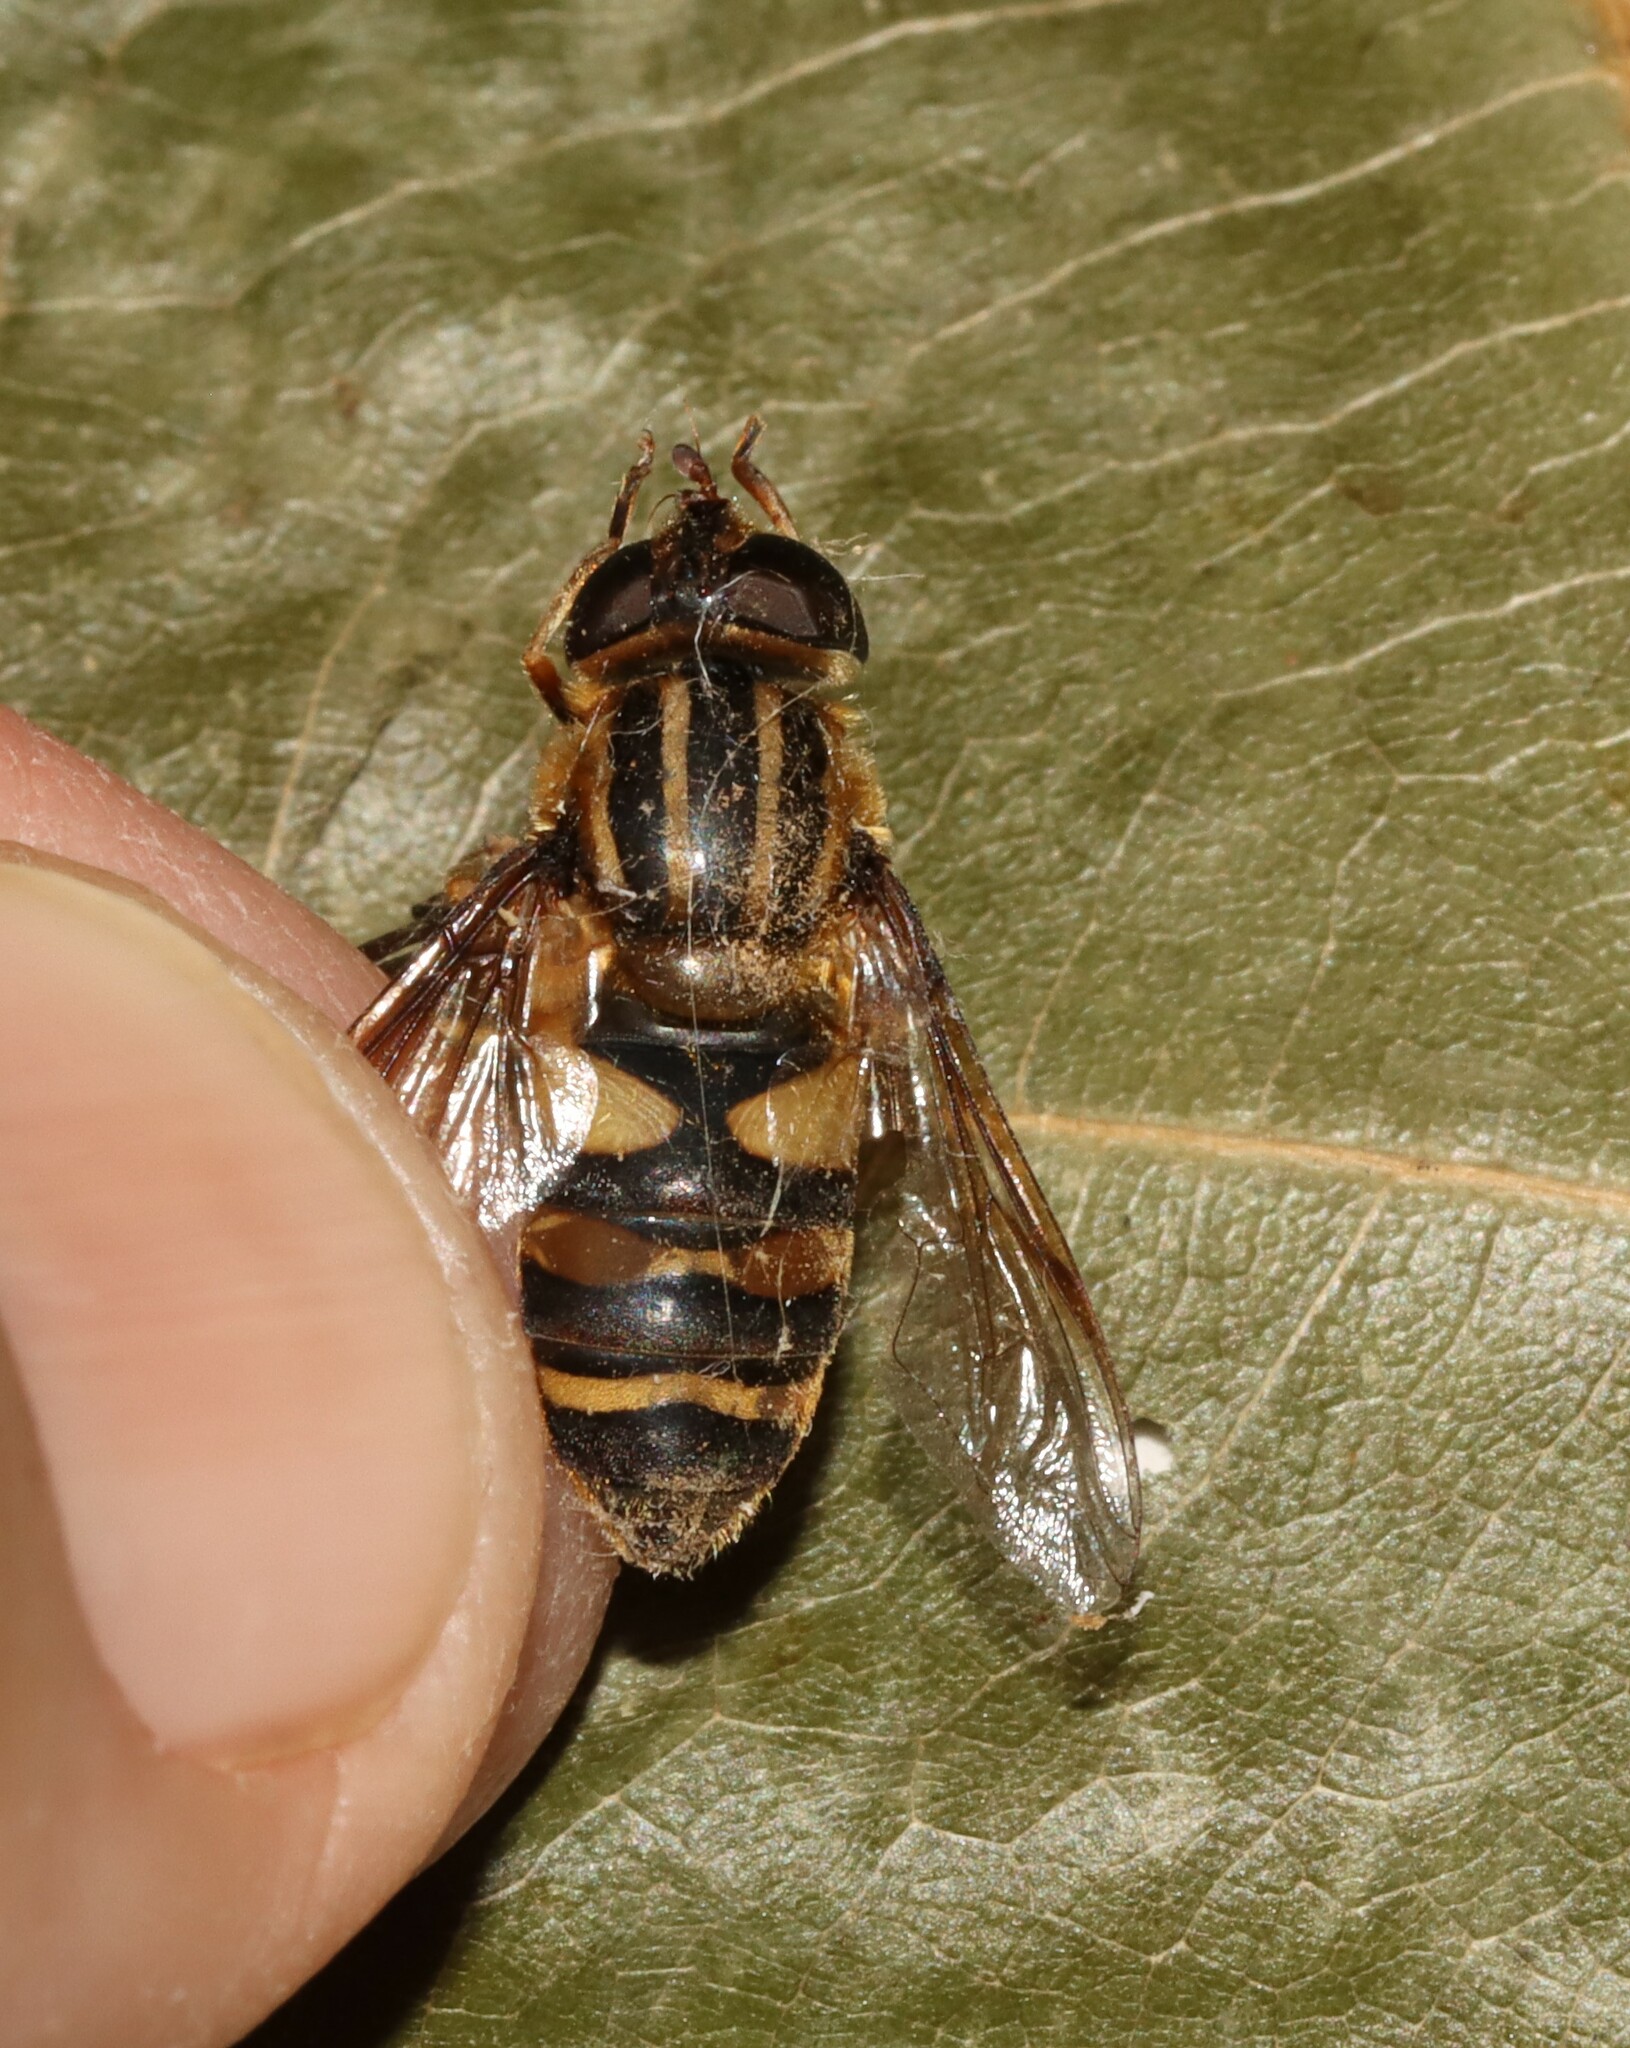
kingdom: Animalia
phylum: Arthropoda
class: Insecta
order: Diptera
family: Syrphidae
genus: Helophilus
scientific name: Helophilus fasciatus
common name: Narrow-headed marsh fly
